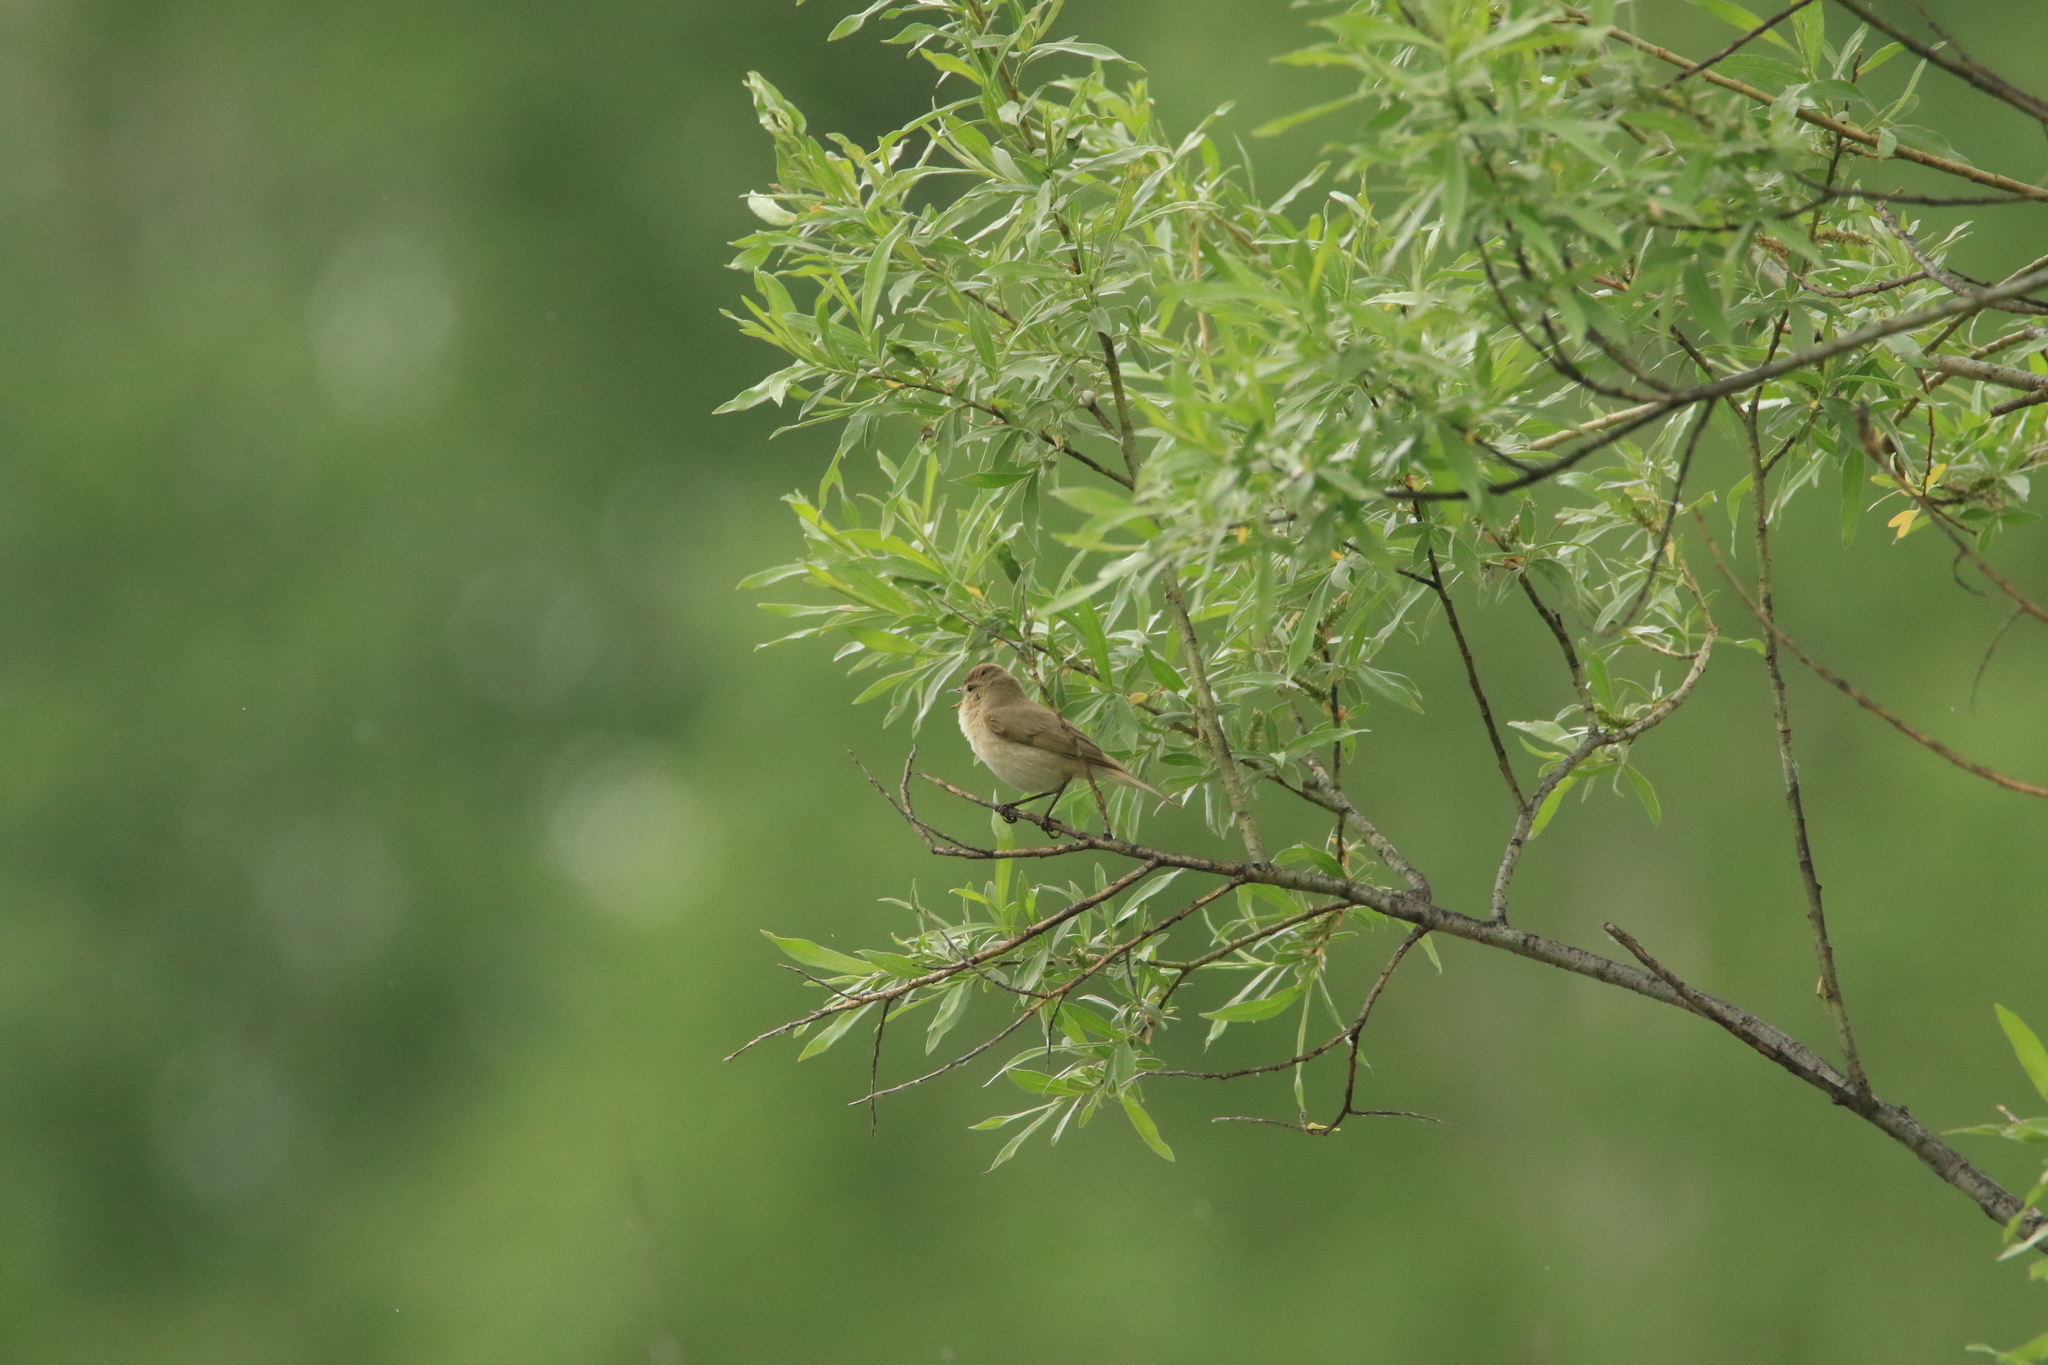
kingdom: Animalia
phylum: Chordata
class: Aves
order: Passeriformes
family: Phylloscopidae
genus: Phylloscopus
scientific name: Phylloscopus collybita
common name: Common chiffchaff
